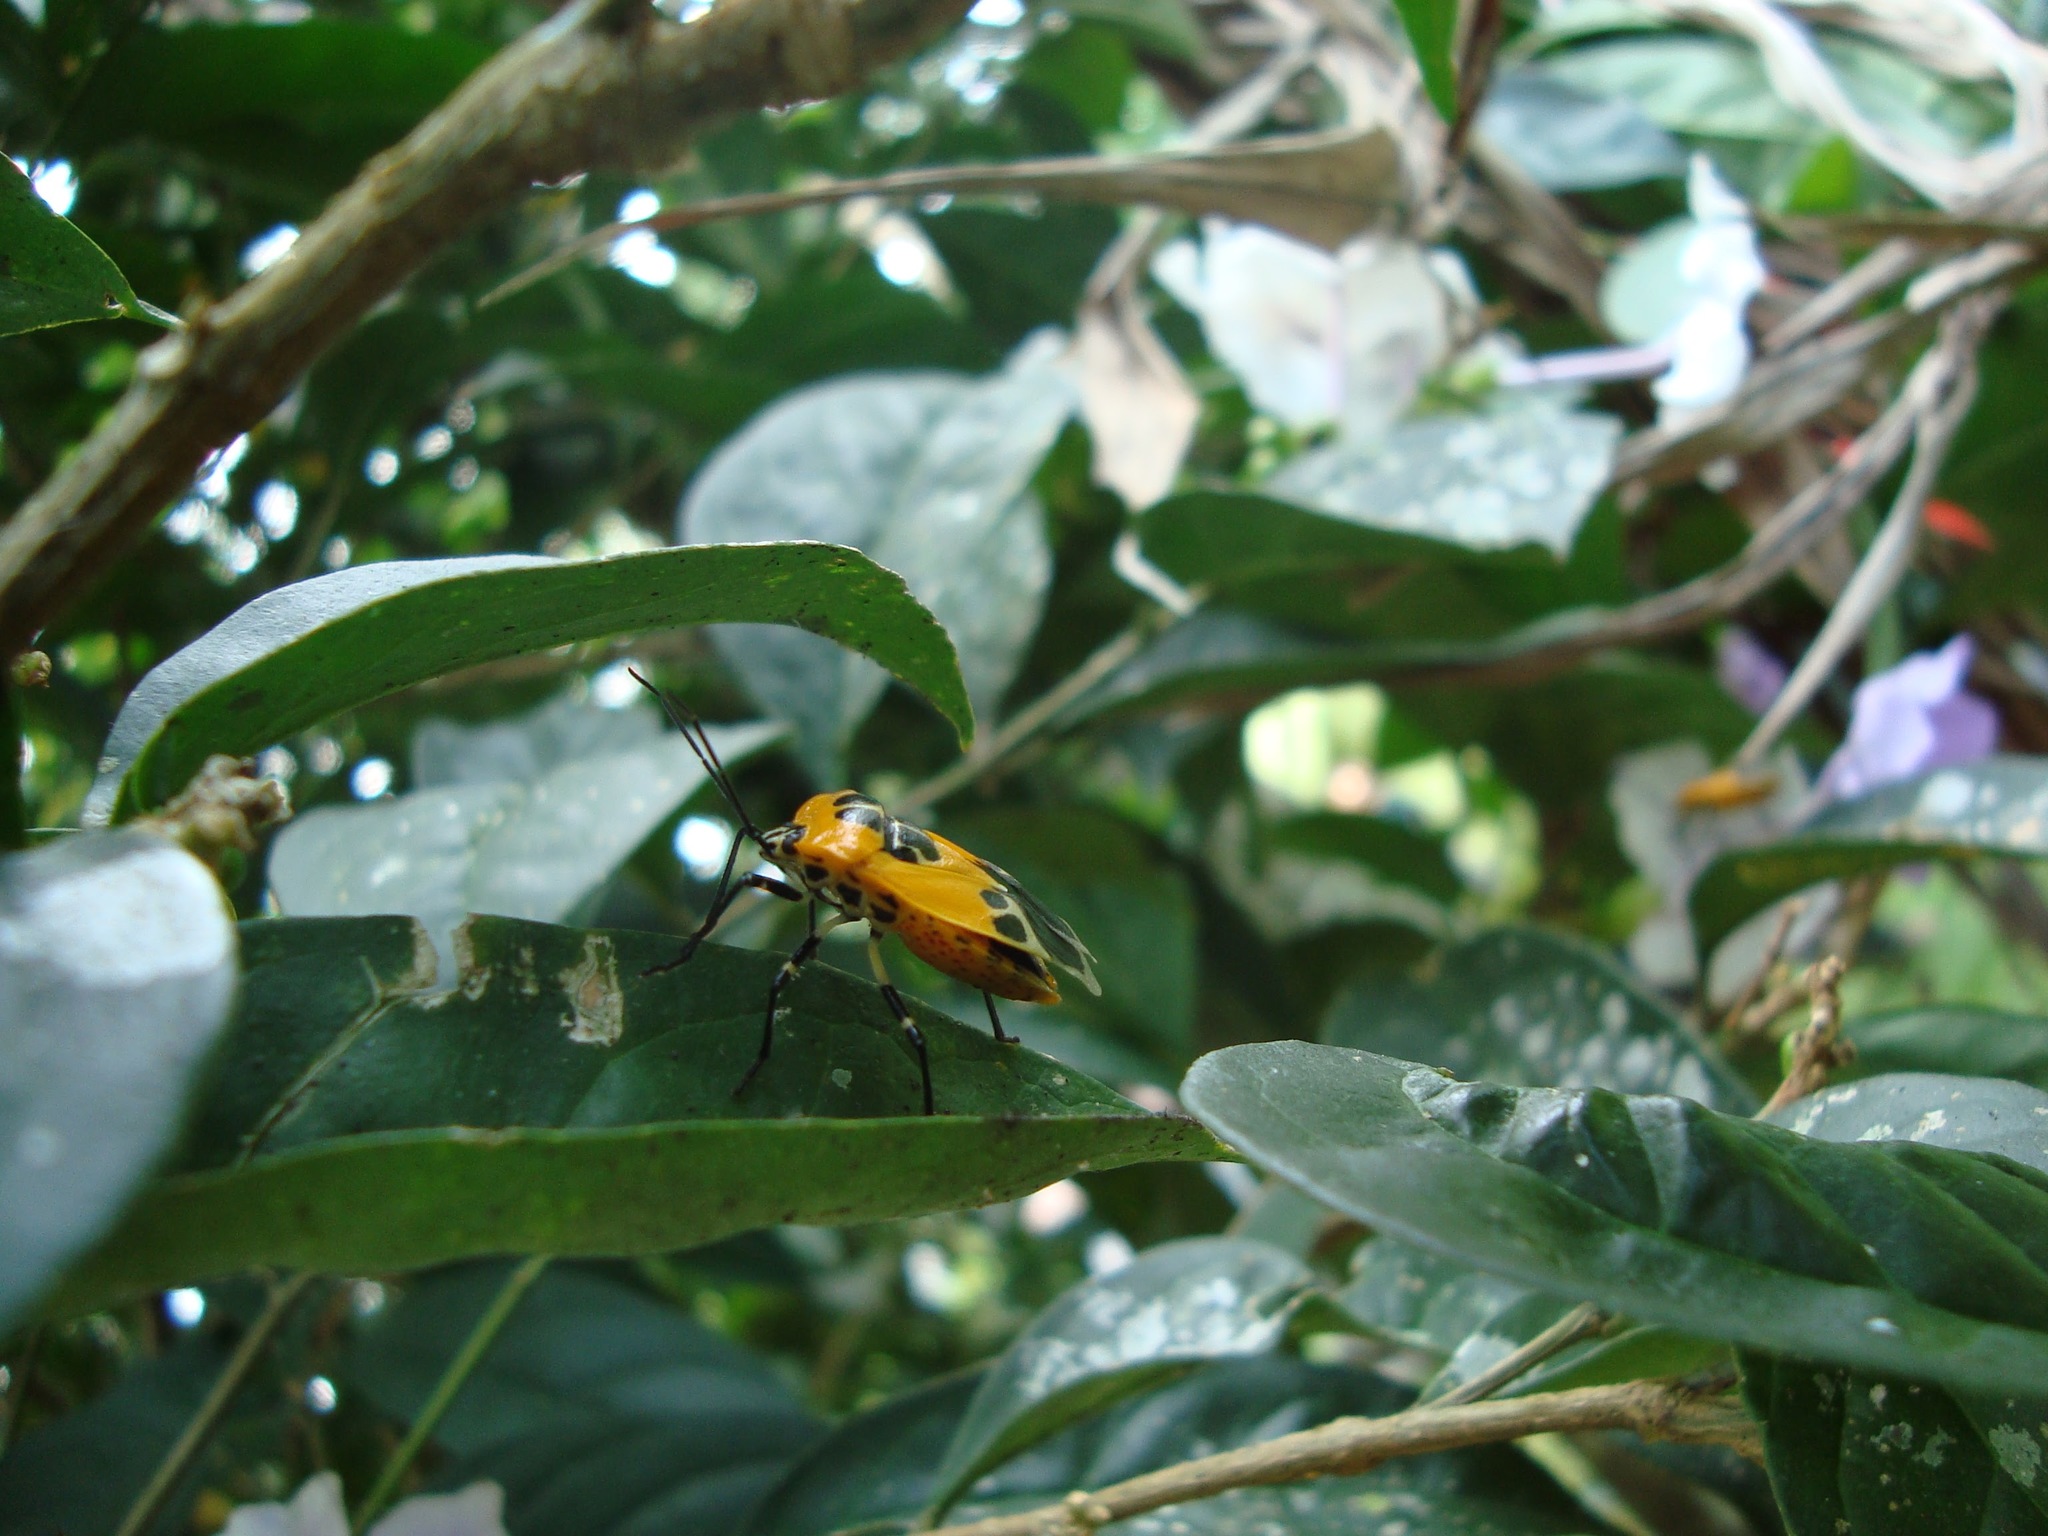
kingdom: Animalia
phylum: Arthropoda
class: Insecta
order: Hemiptera
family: Pentatomidae
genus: Runibia
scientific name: Runibia decorata
